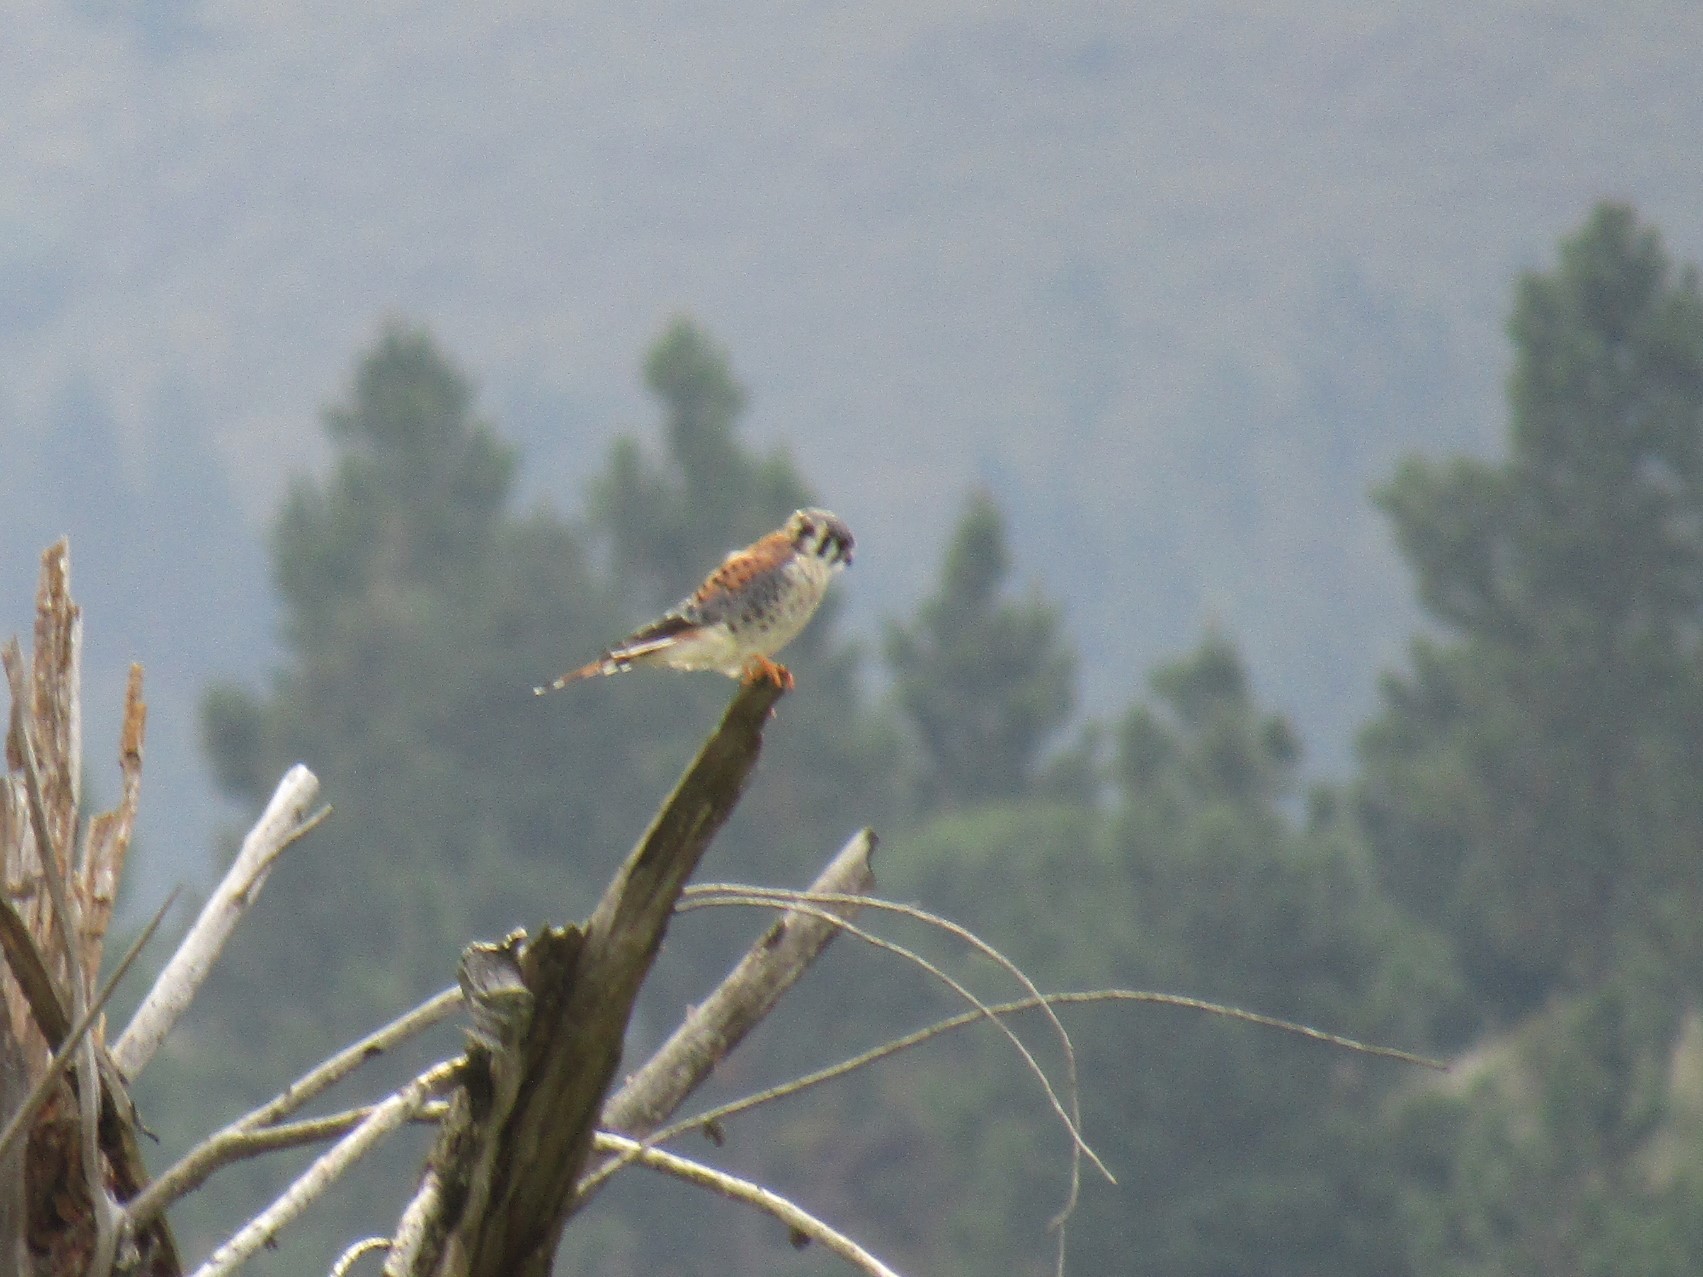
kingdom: Animalia
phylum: Chordata
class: Aves
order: Falconiformes
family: Falconidae
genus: Falco
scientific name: Falco sparverius
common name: American kestrel
